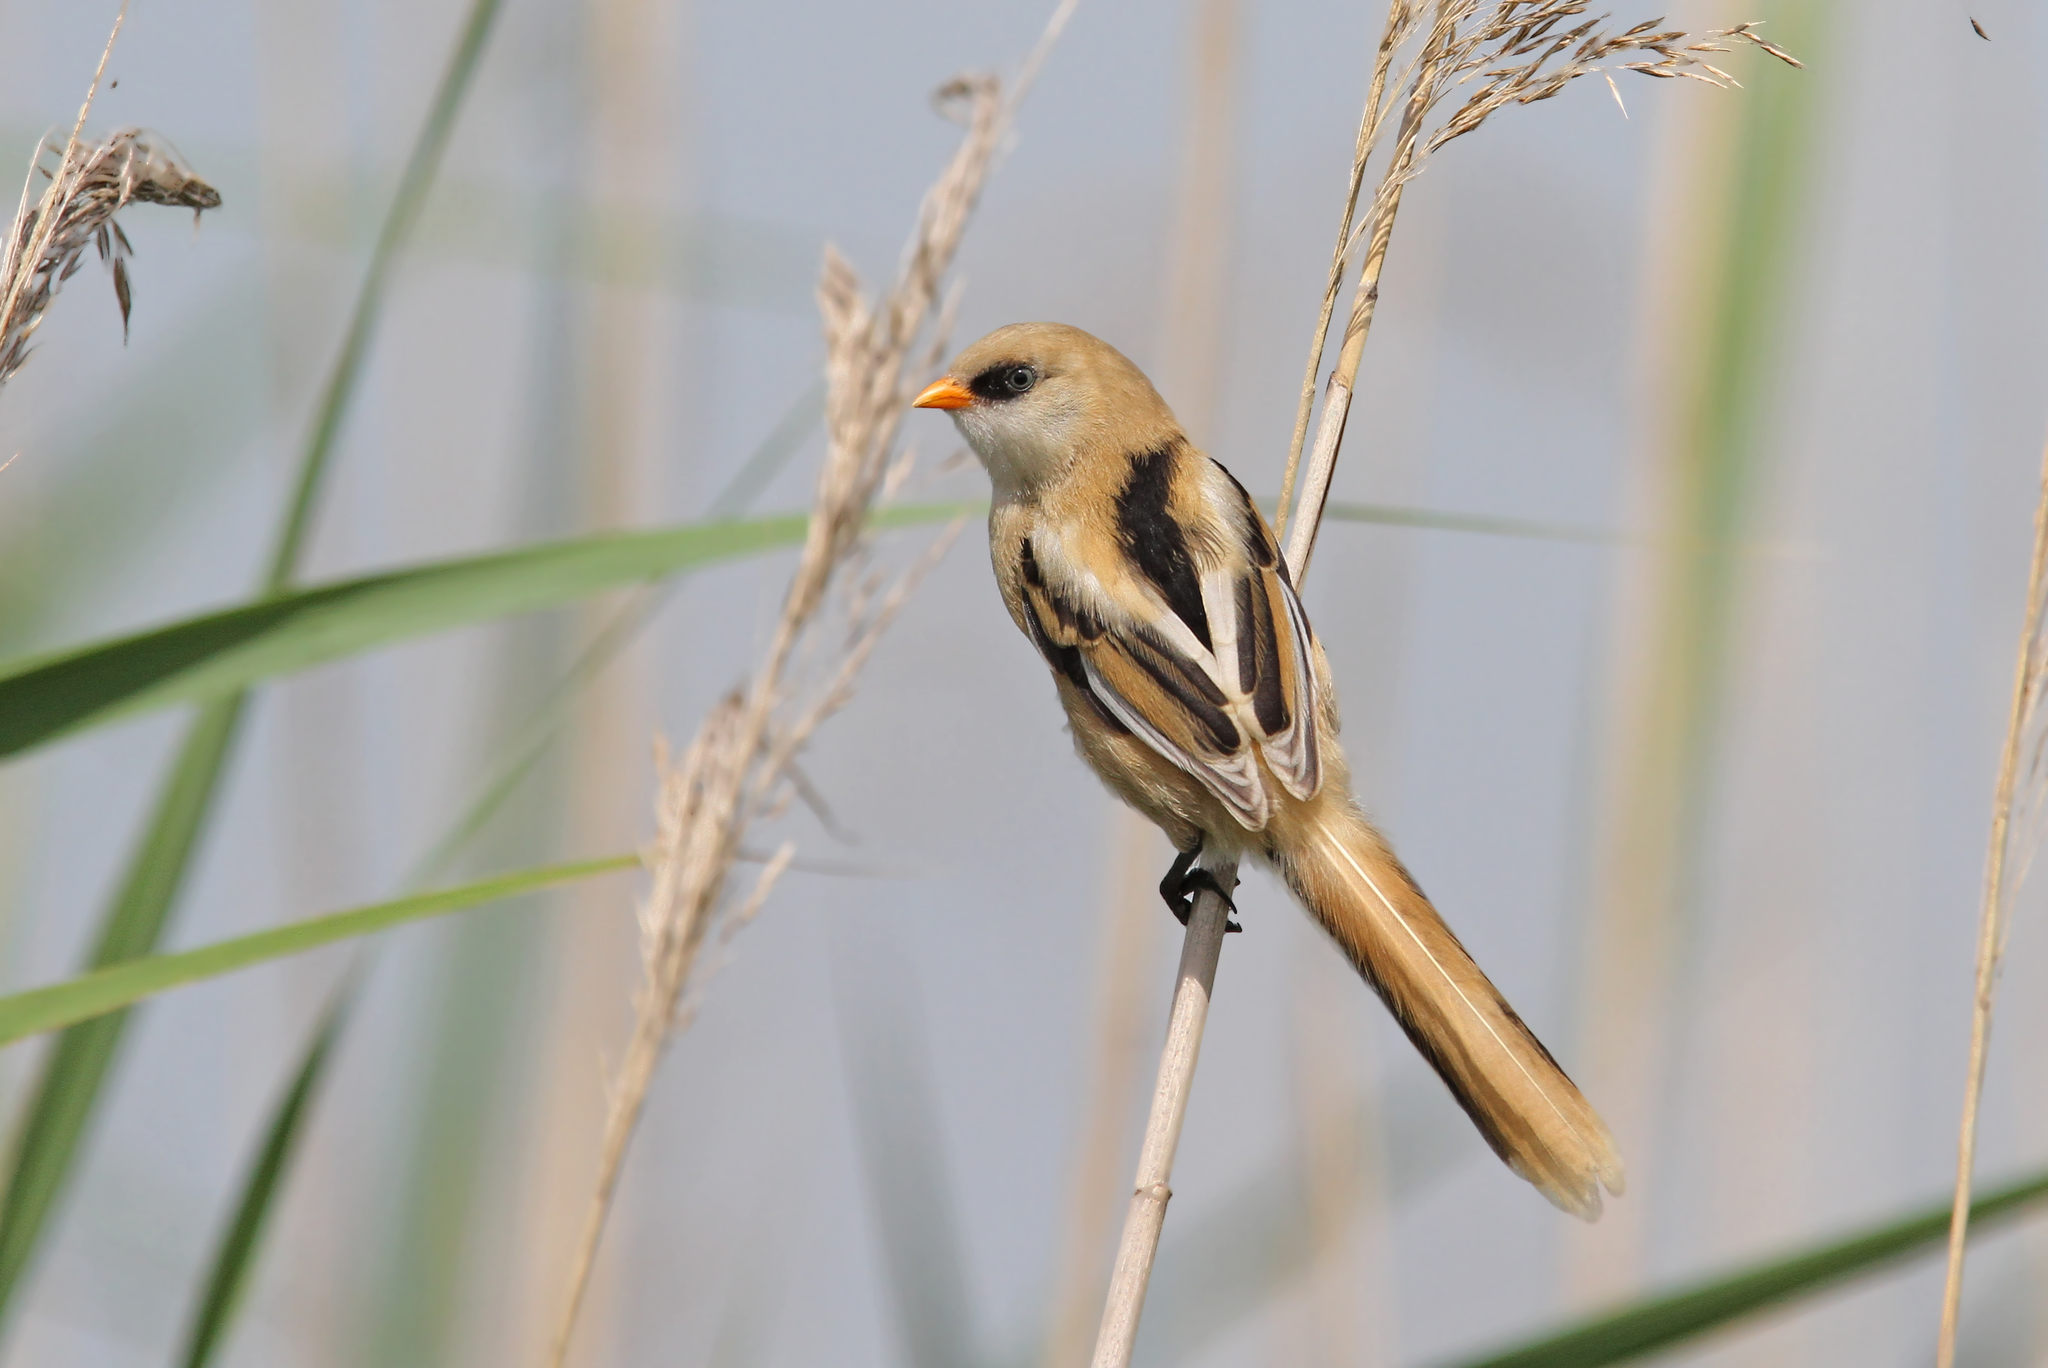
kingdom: Animalia
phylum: Chordata
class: Aves
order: Passeriformes
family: Panuridae
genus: Panurus
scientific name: Panurus biarmicus
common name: Bearded reedling
